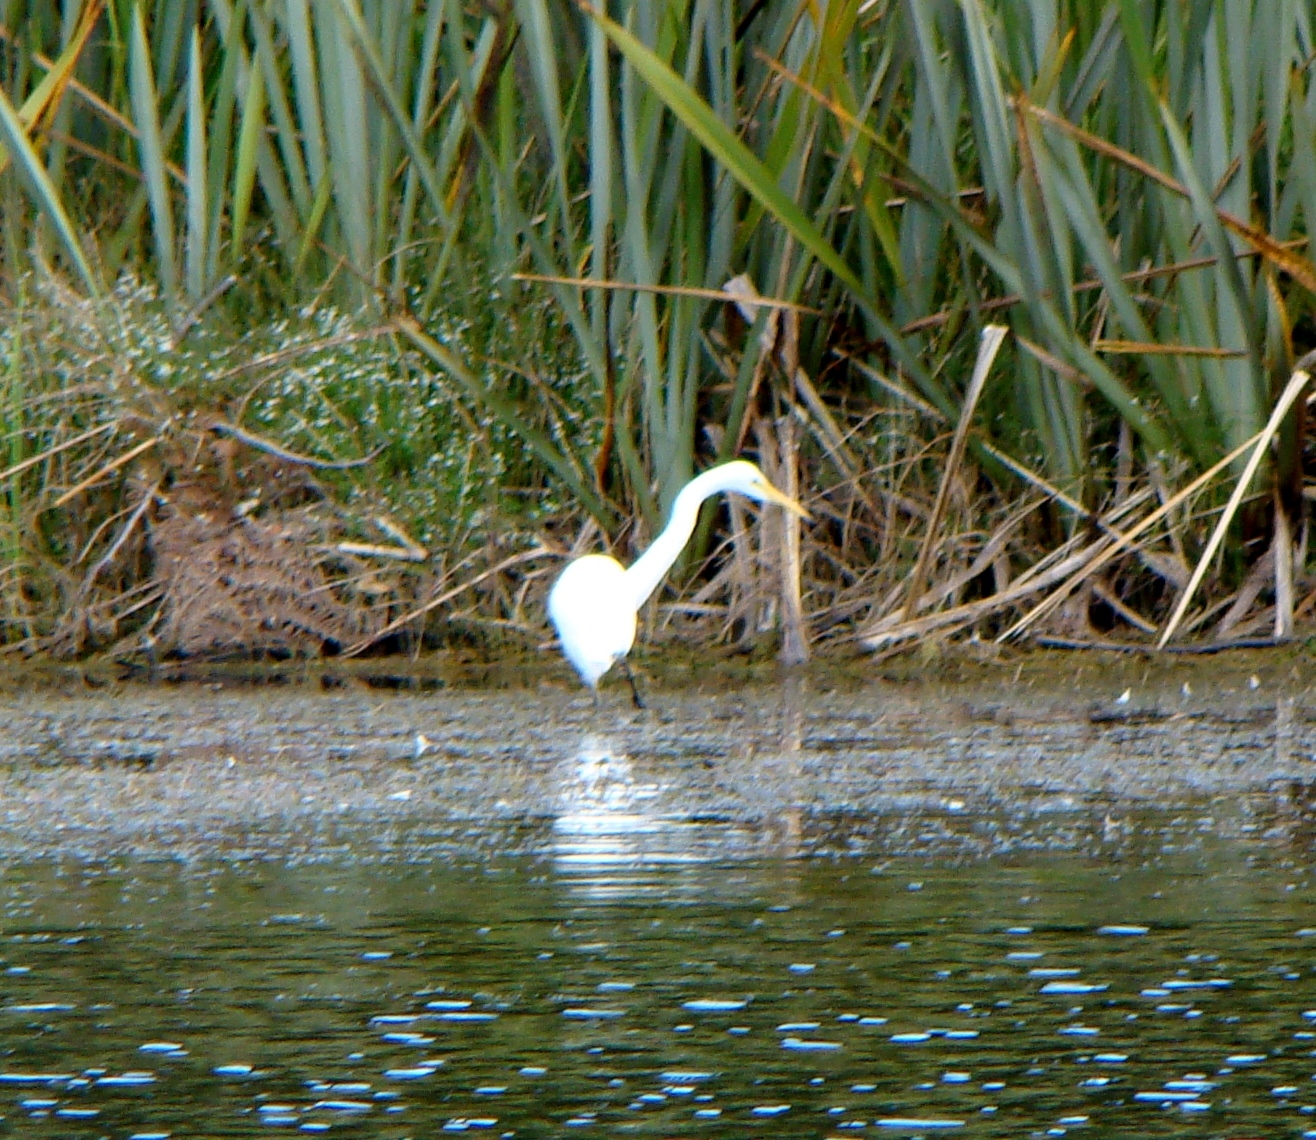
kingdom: Animalia
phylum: Chordata
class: Aves
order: Pelecaniformes
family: Ardeidae
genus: Ardea
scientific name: Ardea modesta
